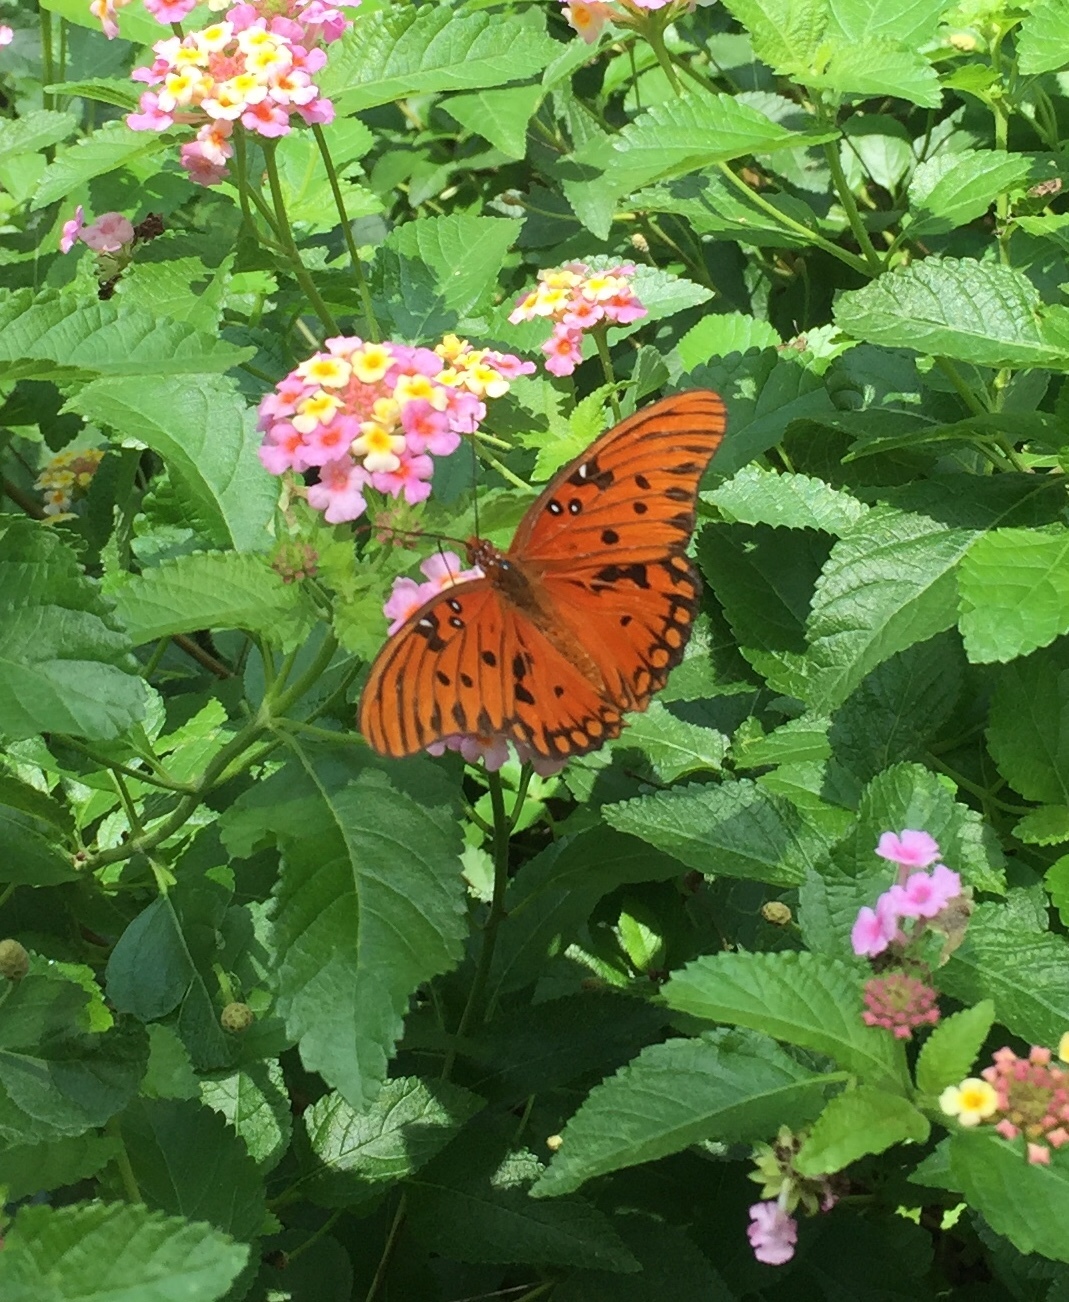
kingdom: Animalia
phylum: Arthropoda
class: Insecta
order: Lepidoptera
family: Nymphalidae
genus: Dione
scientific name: Dione vanillae
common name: Gulf fritillary
